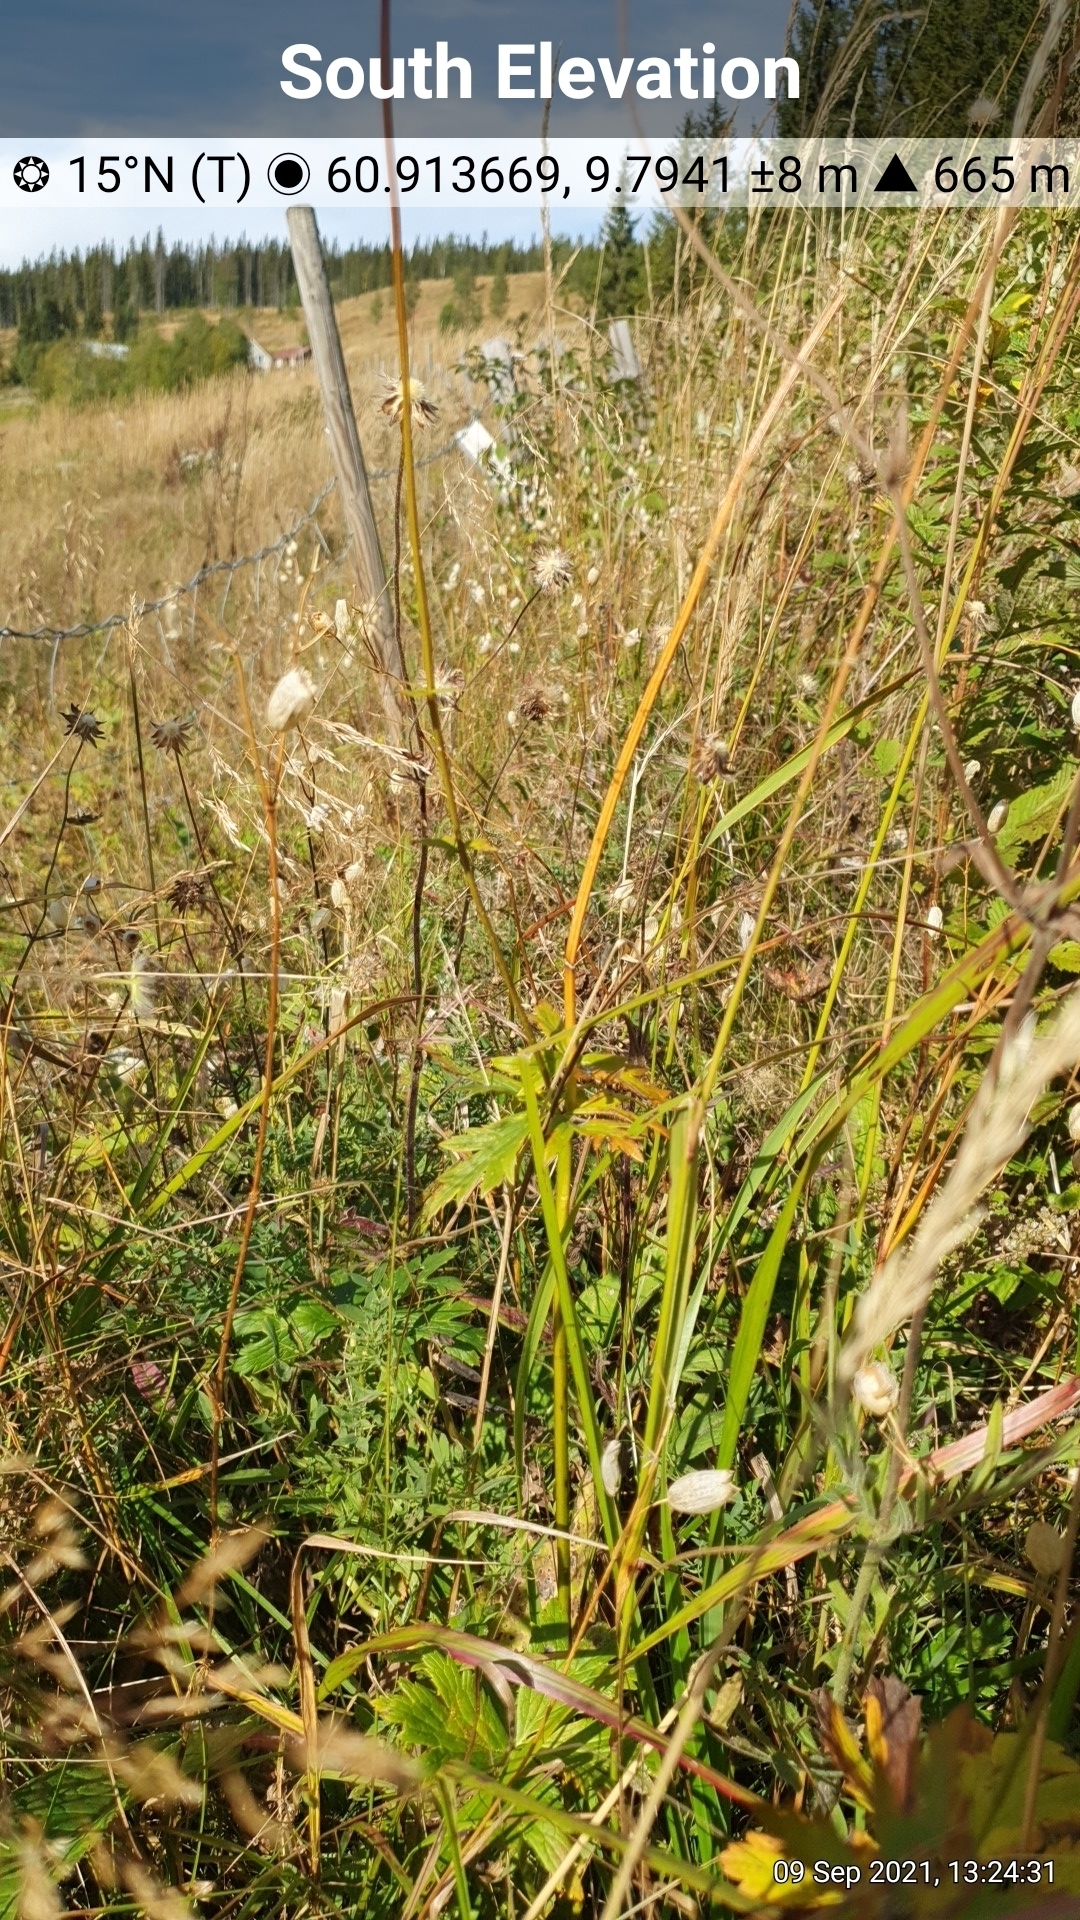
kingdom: Plantae
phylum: Tracheophyta
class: Magnoliopsida
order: Ranunculales
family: Ranunculaceae
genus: Trollius
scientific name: Trollius europaeus
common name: European globeflower
